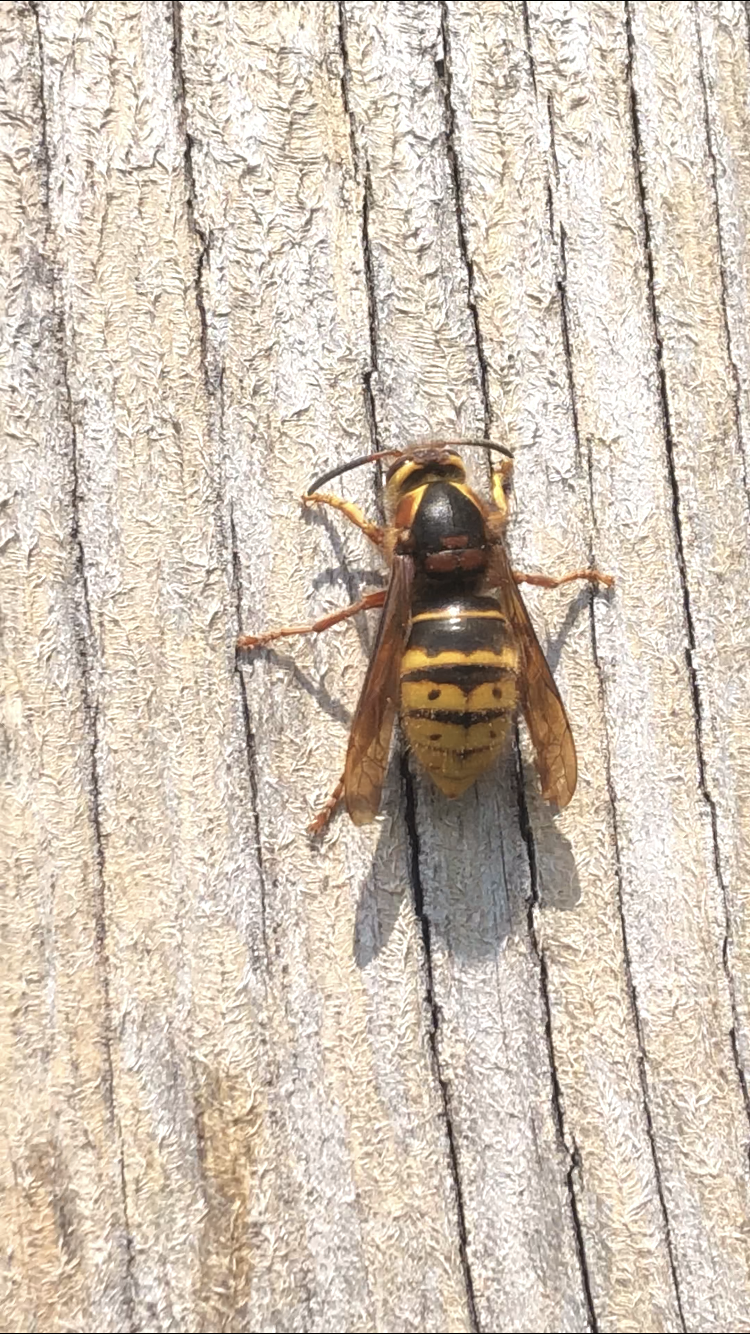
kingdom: Animalia
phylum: Arthropoda
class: Insecta
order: Hymenoptera
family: Vespidae
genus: Dolichovespula
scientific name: Dolichovespula media
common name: Median wasp
